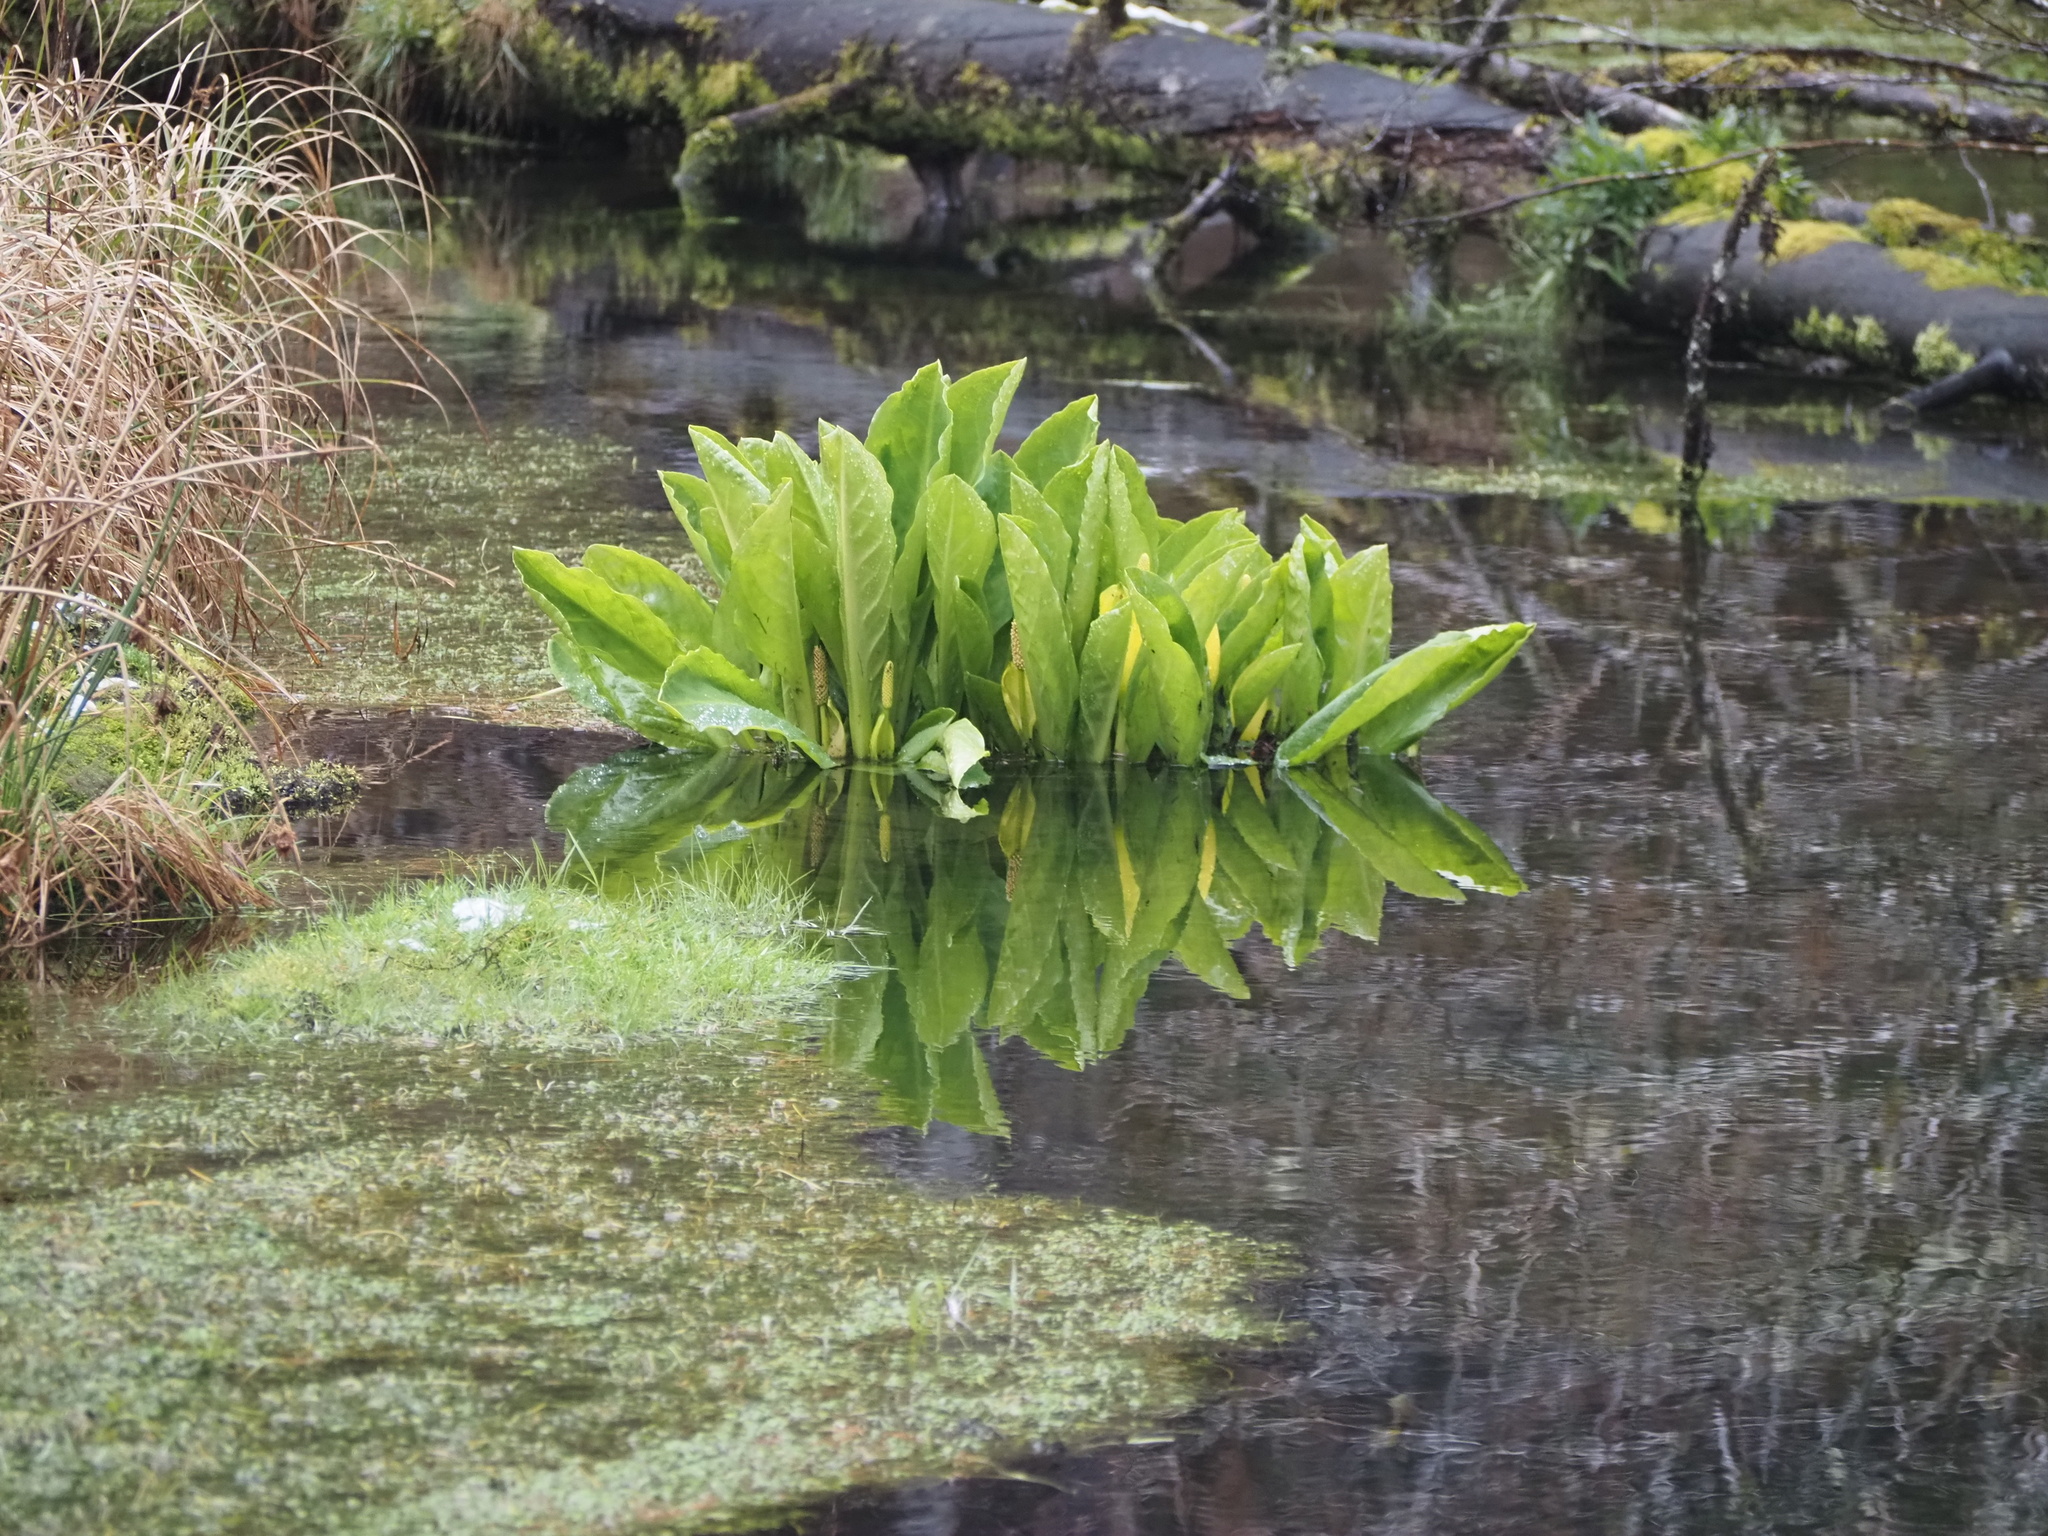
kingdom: Plantae
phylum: Tracheophyta
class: Liliopsida
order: Alismatales
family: Araceae
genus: Lysichiton
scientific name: Lysichiton americanus
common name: American skunk cabbage
